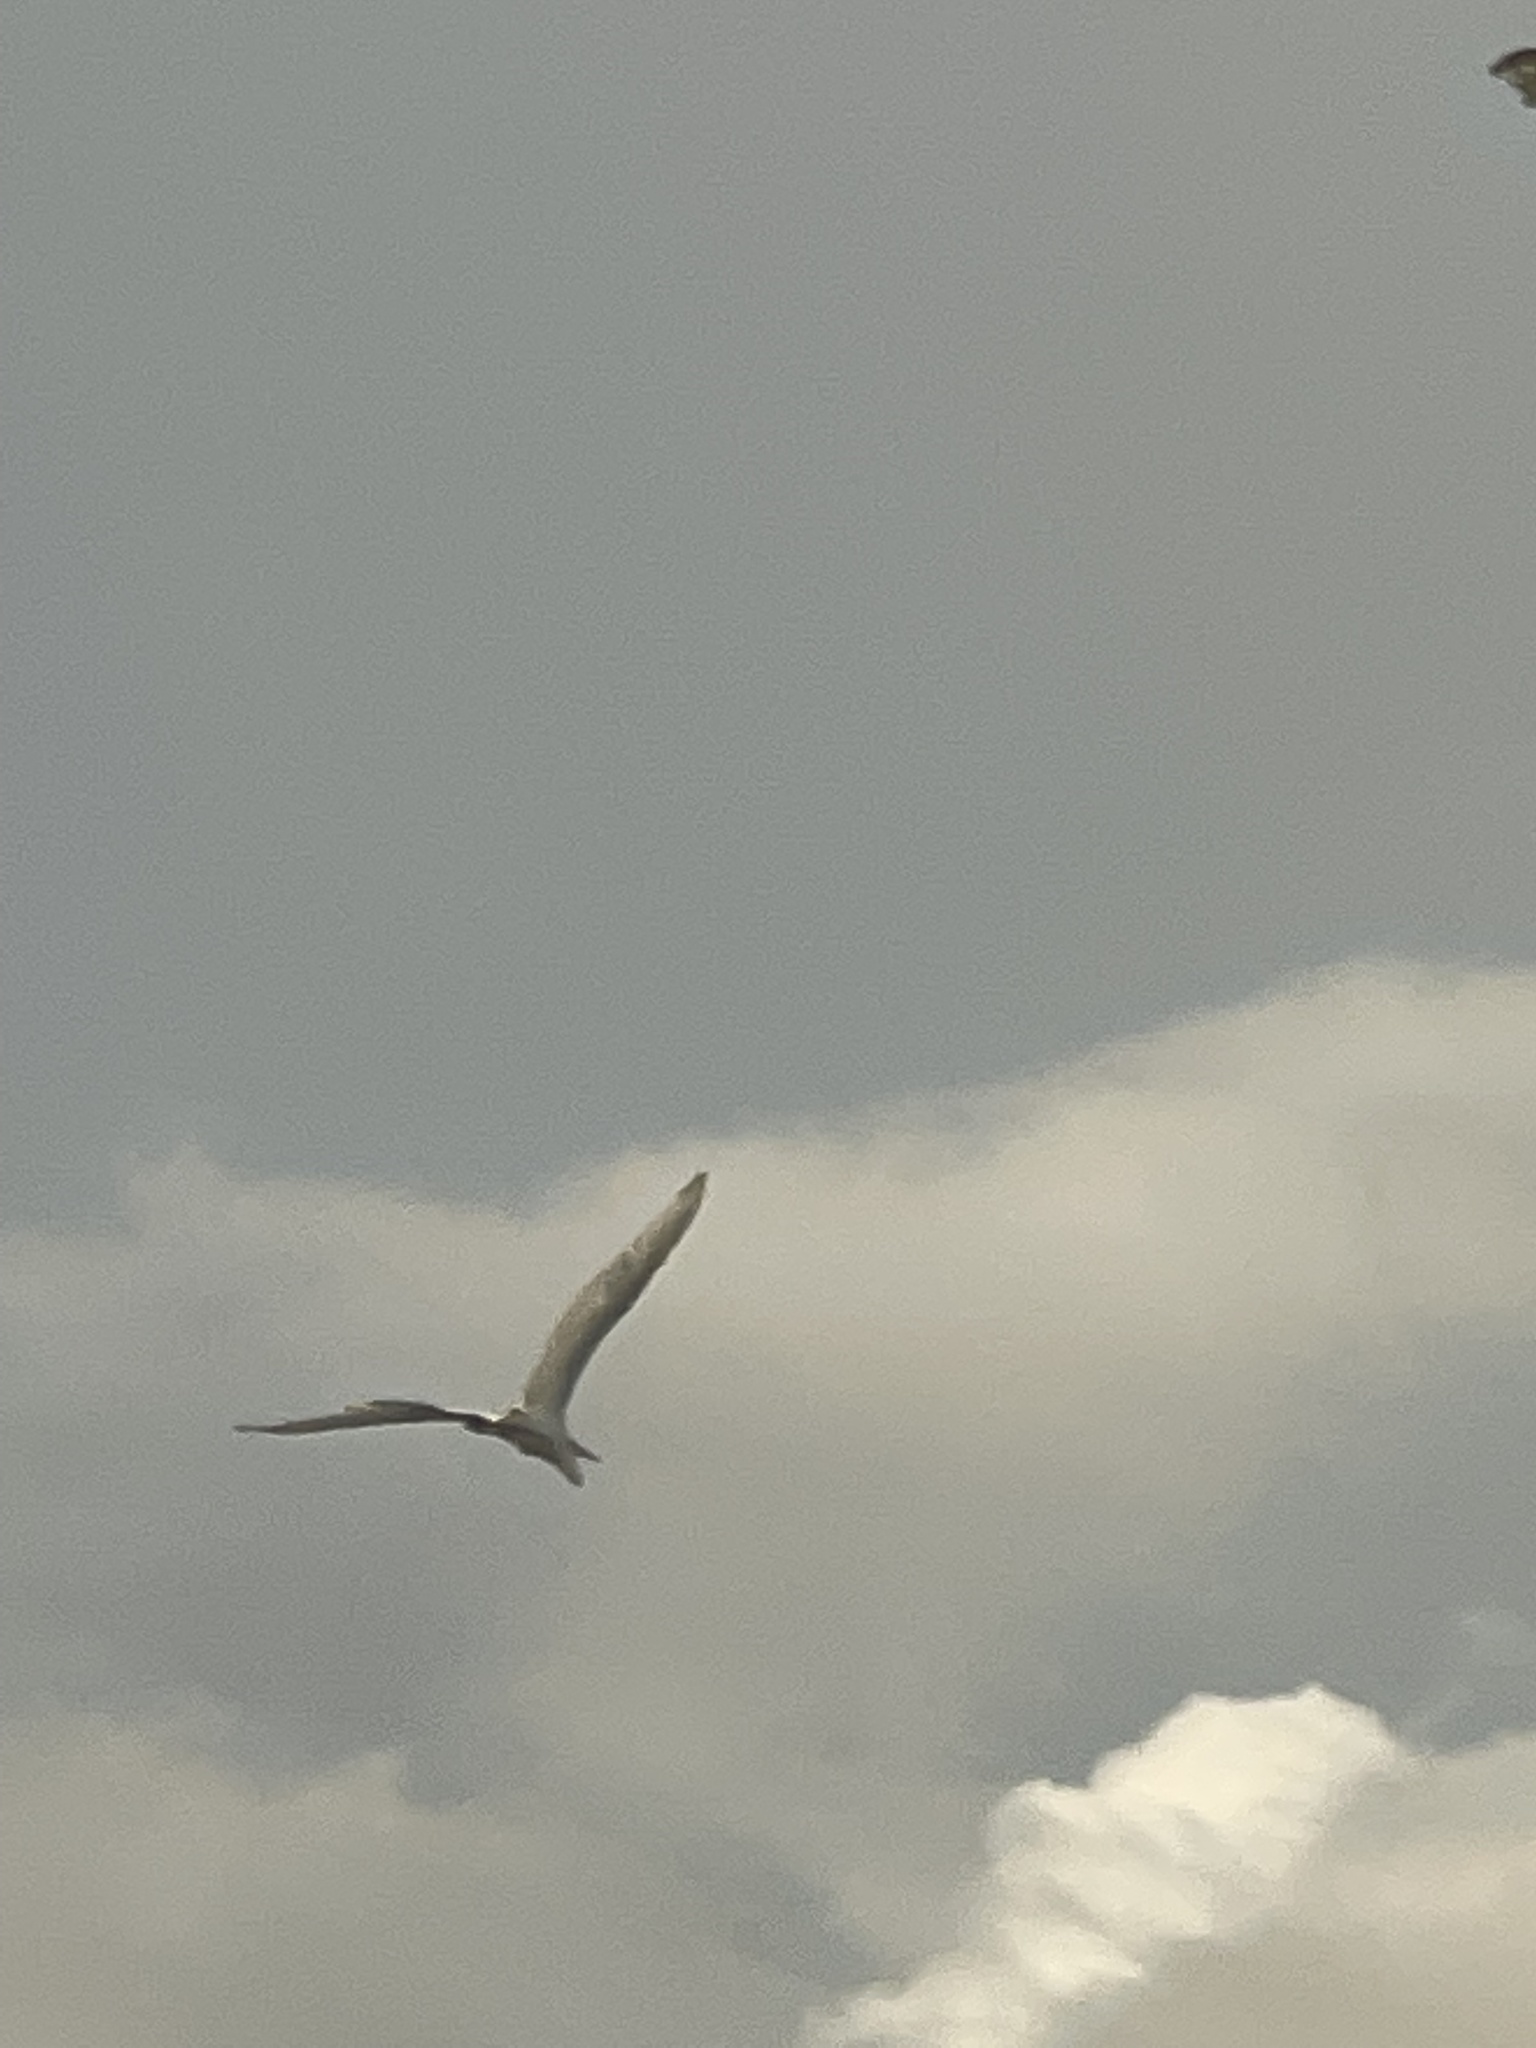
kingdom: Animalia
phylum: Chordata
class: Aves
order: Pelecaniformes
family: Ardeidae
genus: Ardea
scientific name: Ardea alba
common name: Great egret
